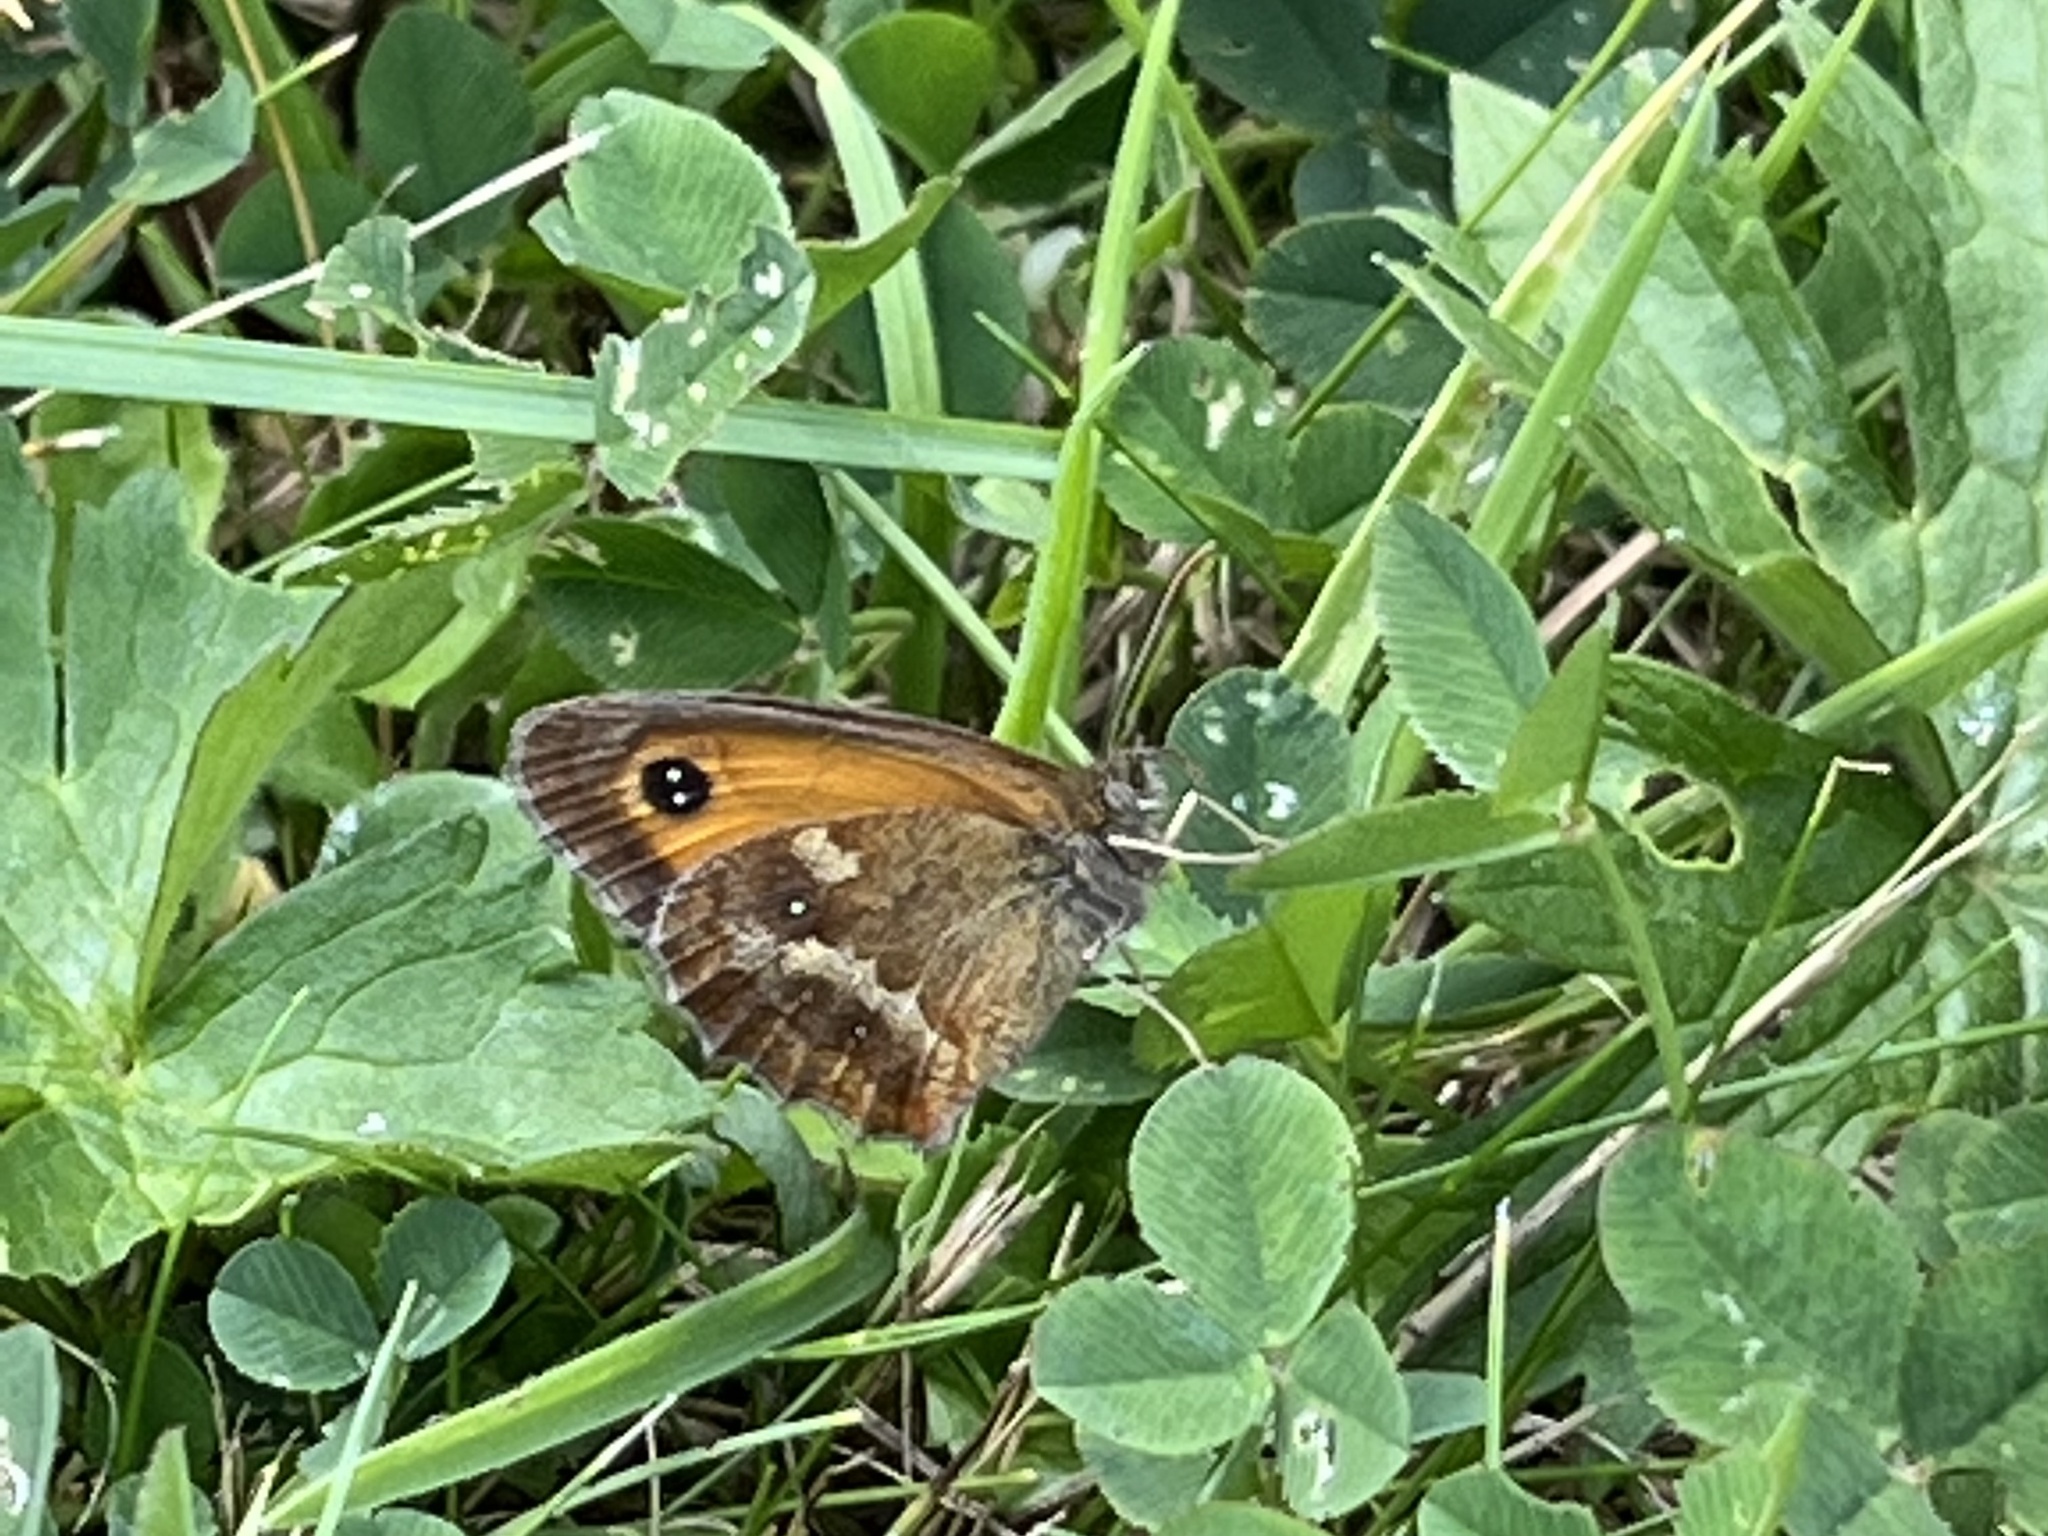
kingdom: Animalia
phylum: Arthropoda
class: Insecta
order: Lepidoptera
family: Nymphalidae
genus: Pyronia
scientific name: Pyronia tithonus
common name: Gatekeeper
